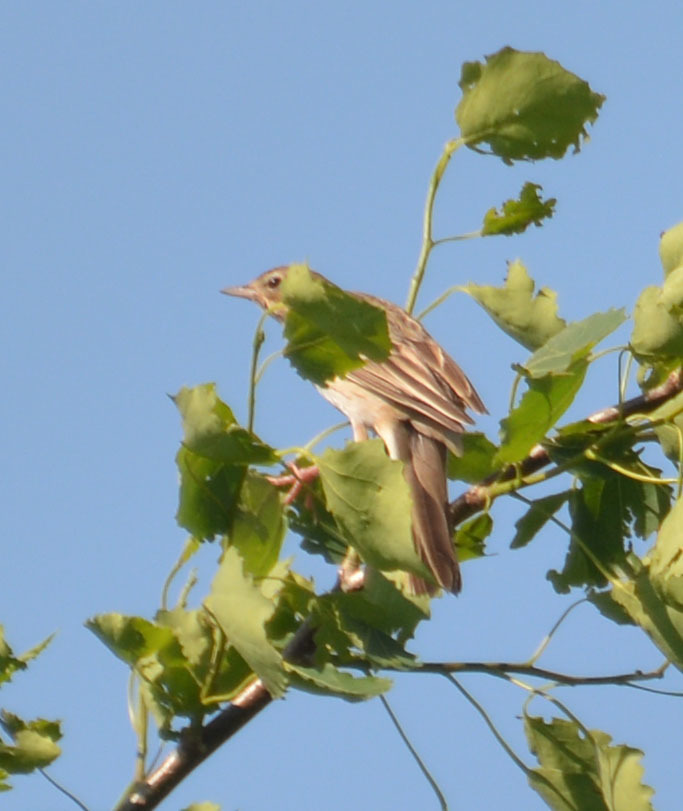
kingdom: Animalia
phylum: Chordata
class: Aves
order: Passeriformes
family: Motacillidae
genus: Anthus
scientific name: Anthus trivialis
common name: Tree pipit
